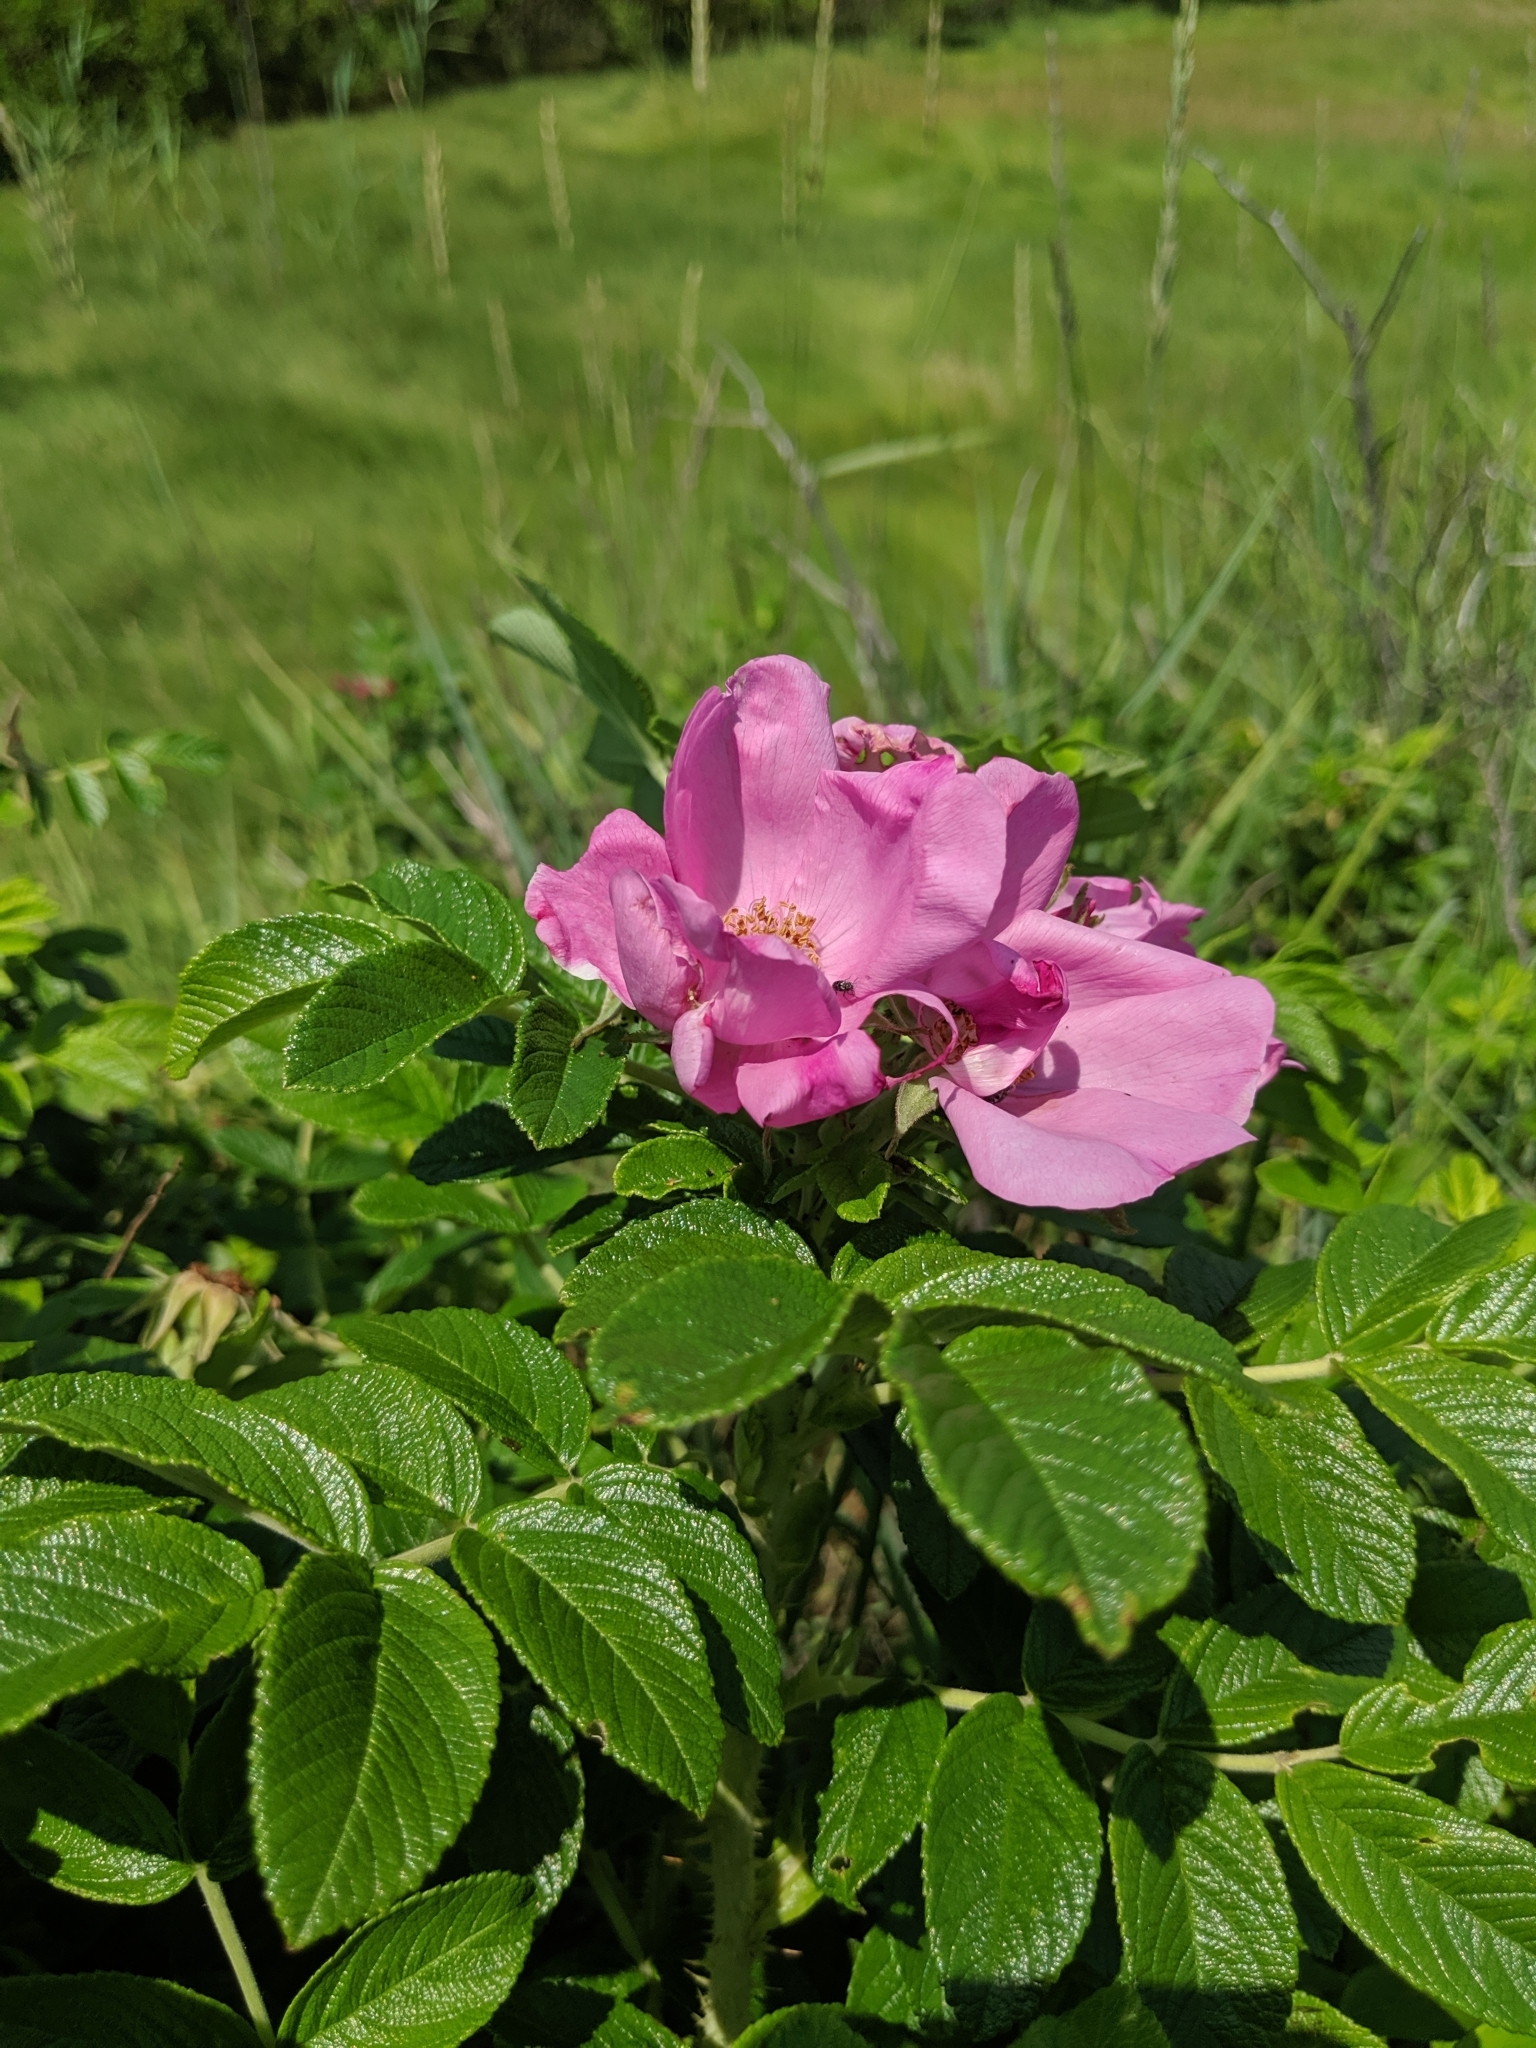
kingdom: Plantae
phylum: Tracheophyta
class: Magnoliopsida
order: Rosales
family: Rosaceae
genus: Rosa
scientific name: Rosa rugosa
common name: Japanese rose
